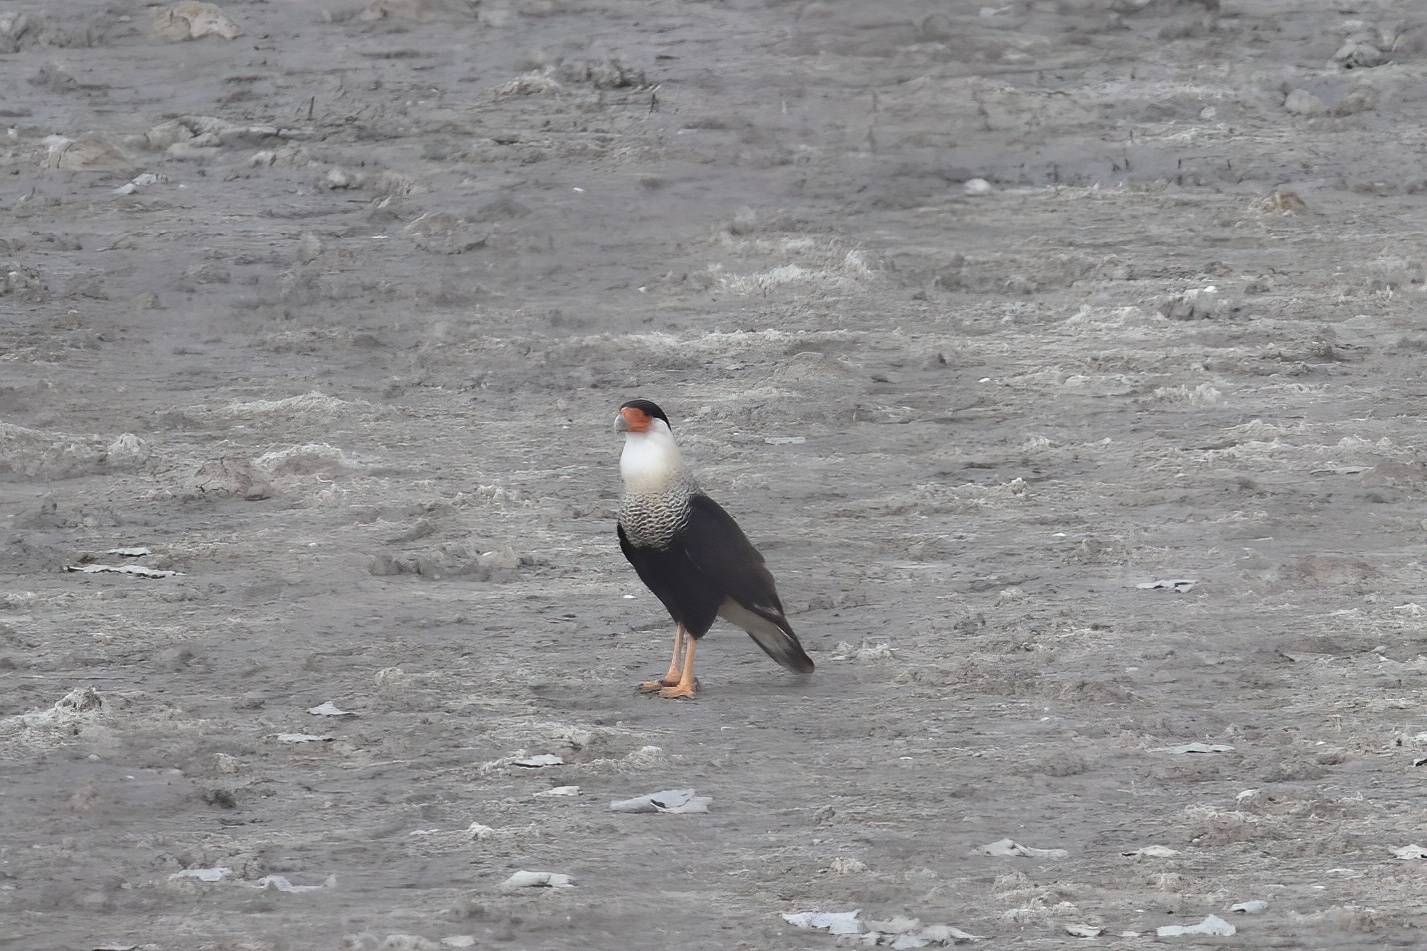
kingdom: Animalia
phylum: Chordata
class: Aves
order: Falconiformes
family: Falconidae
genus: Caracara
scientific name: Caracara plancus
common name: Southern caracara
